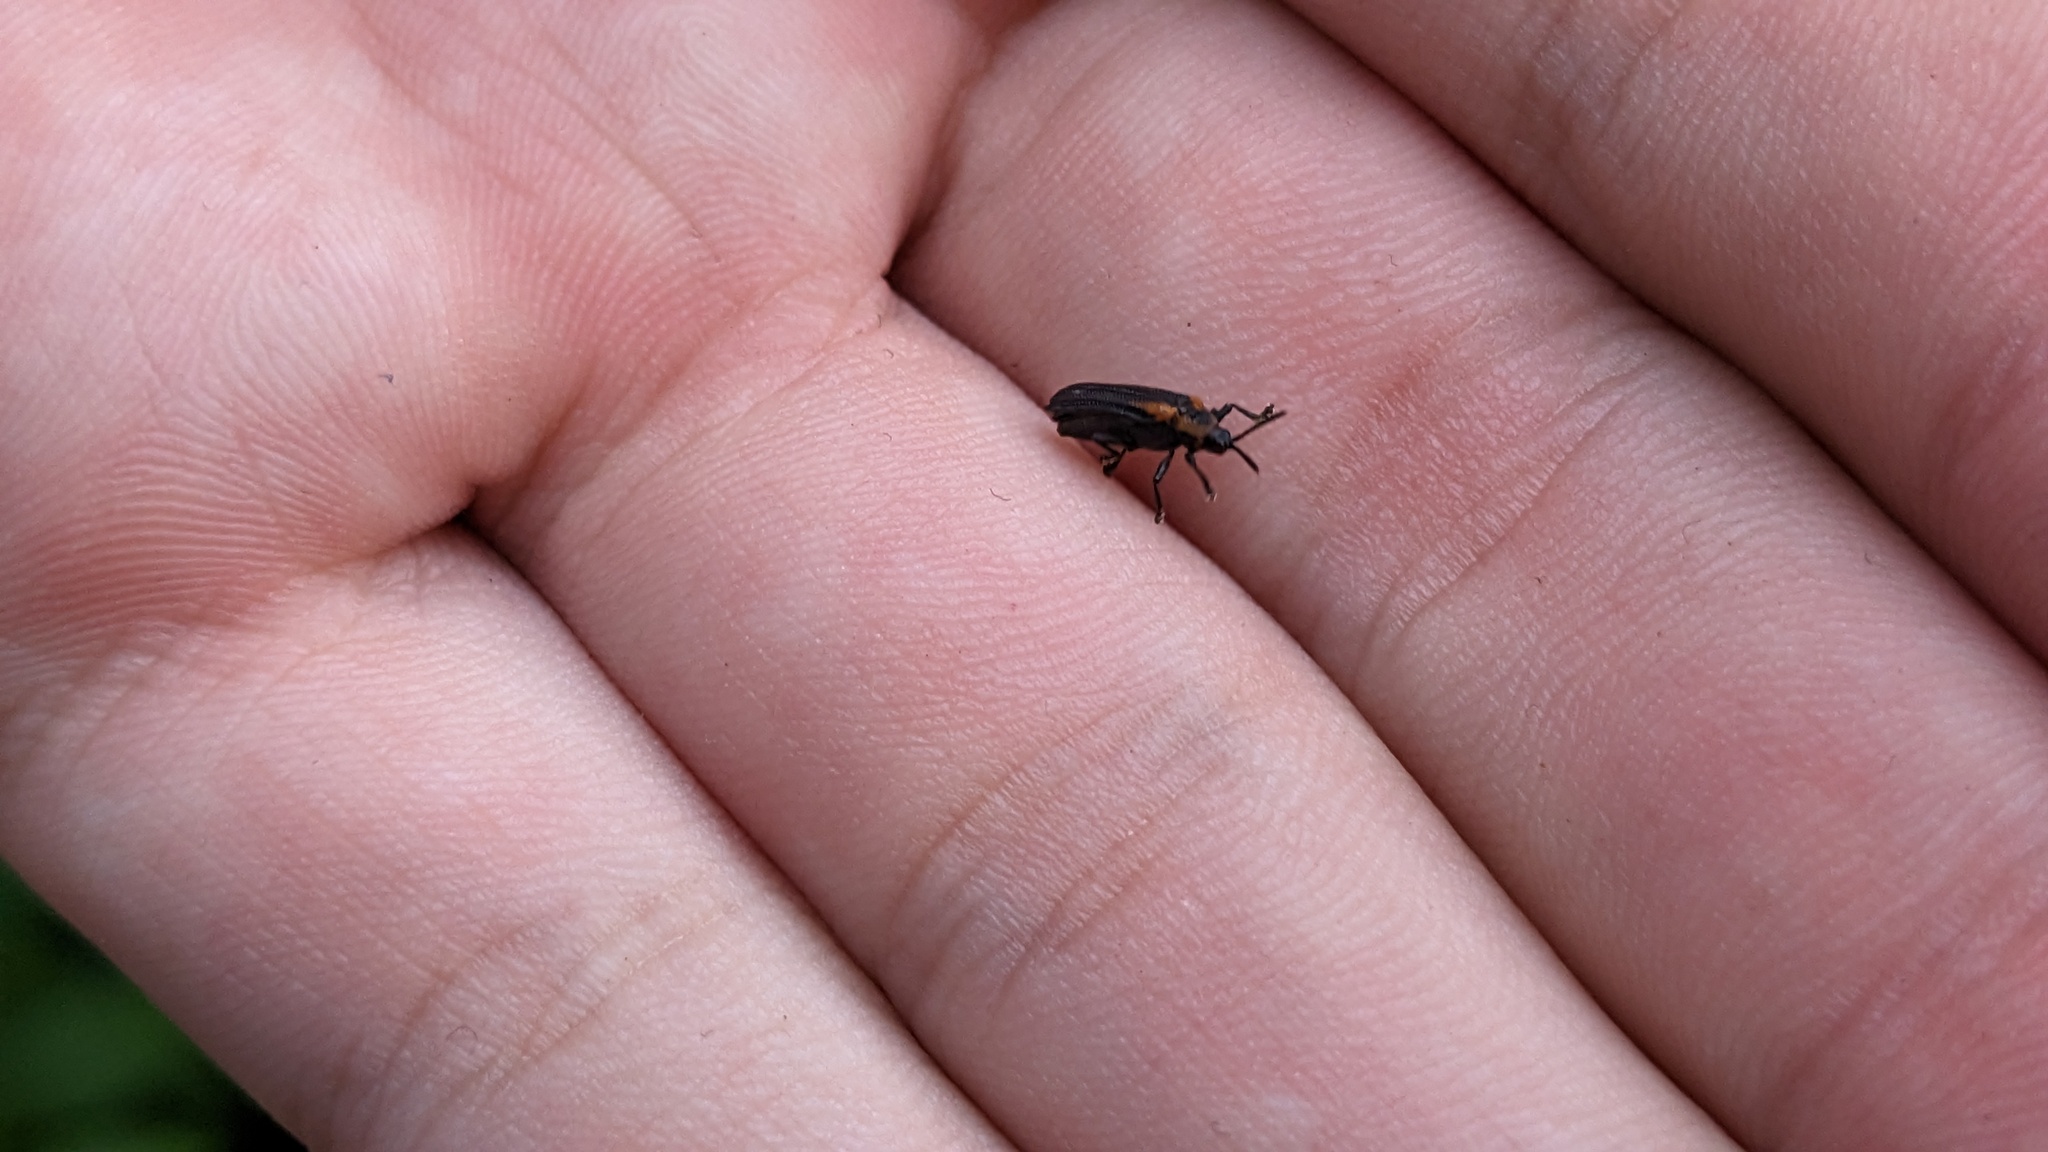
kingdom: Animalia
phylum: Arthropoda
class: Insecta
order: Coleoptera
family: Chrysomelidae
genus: Odontota
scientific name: Odontota scapularis
